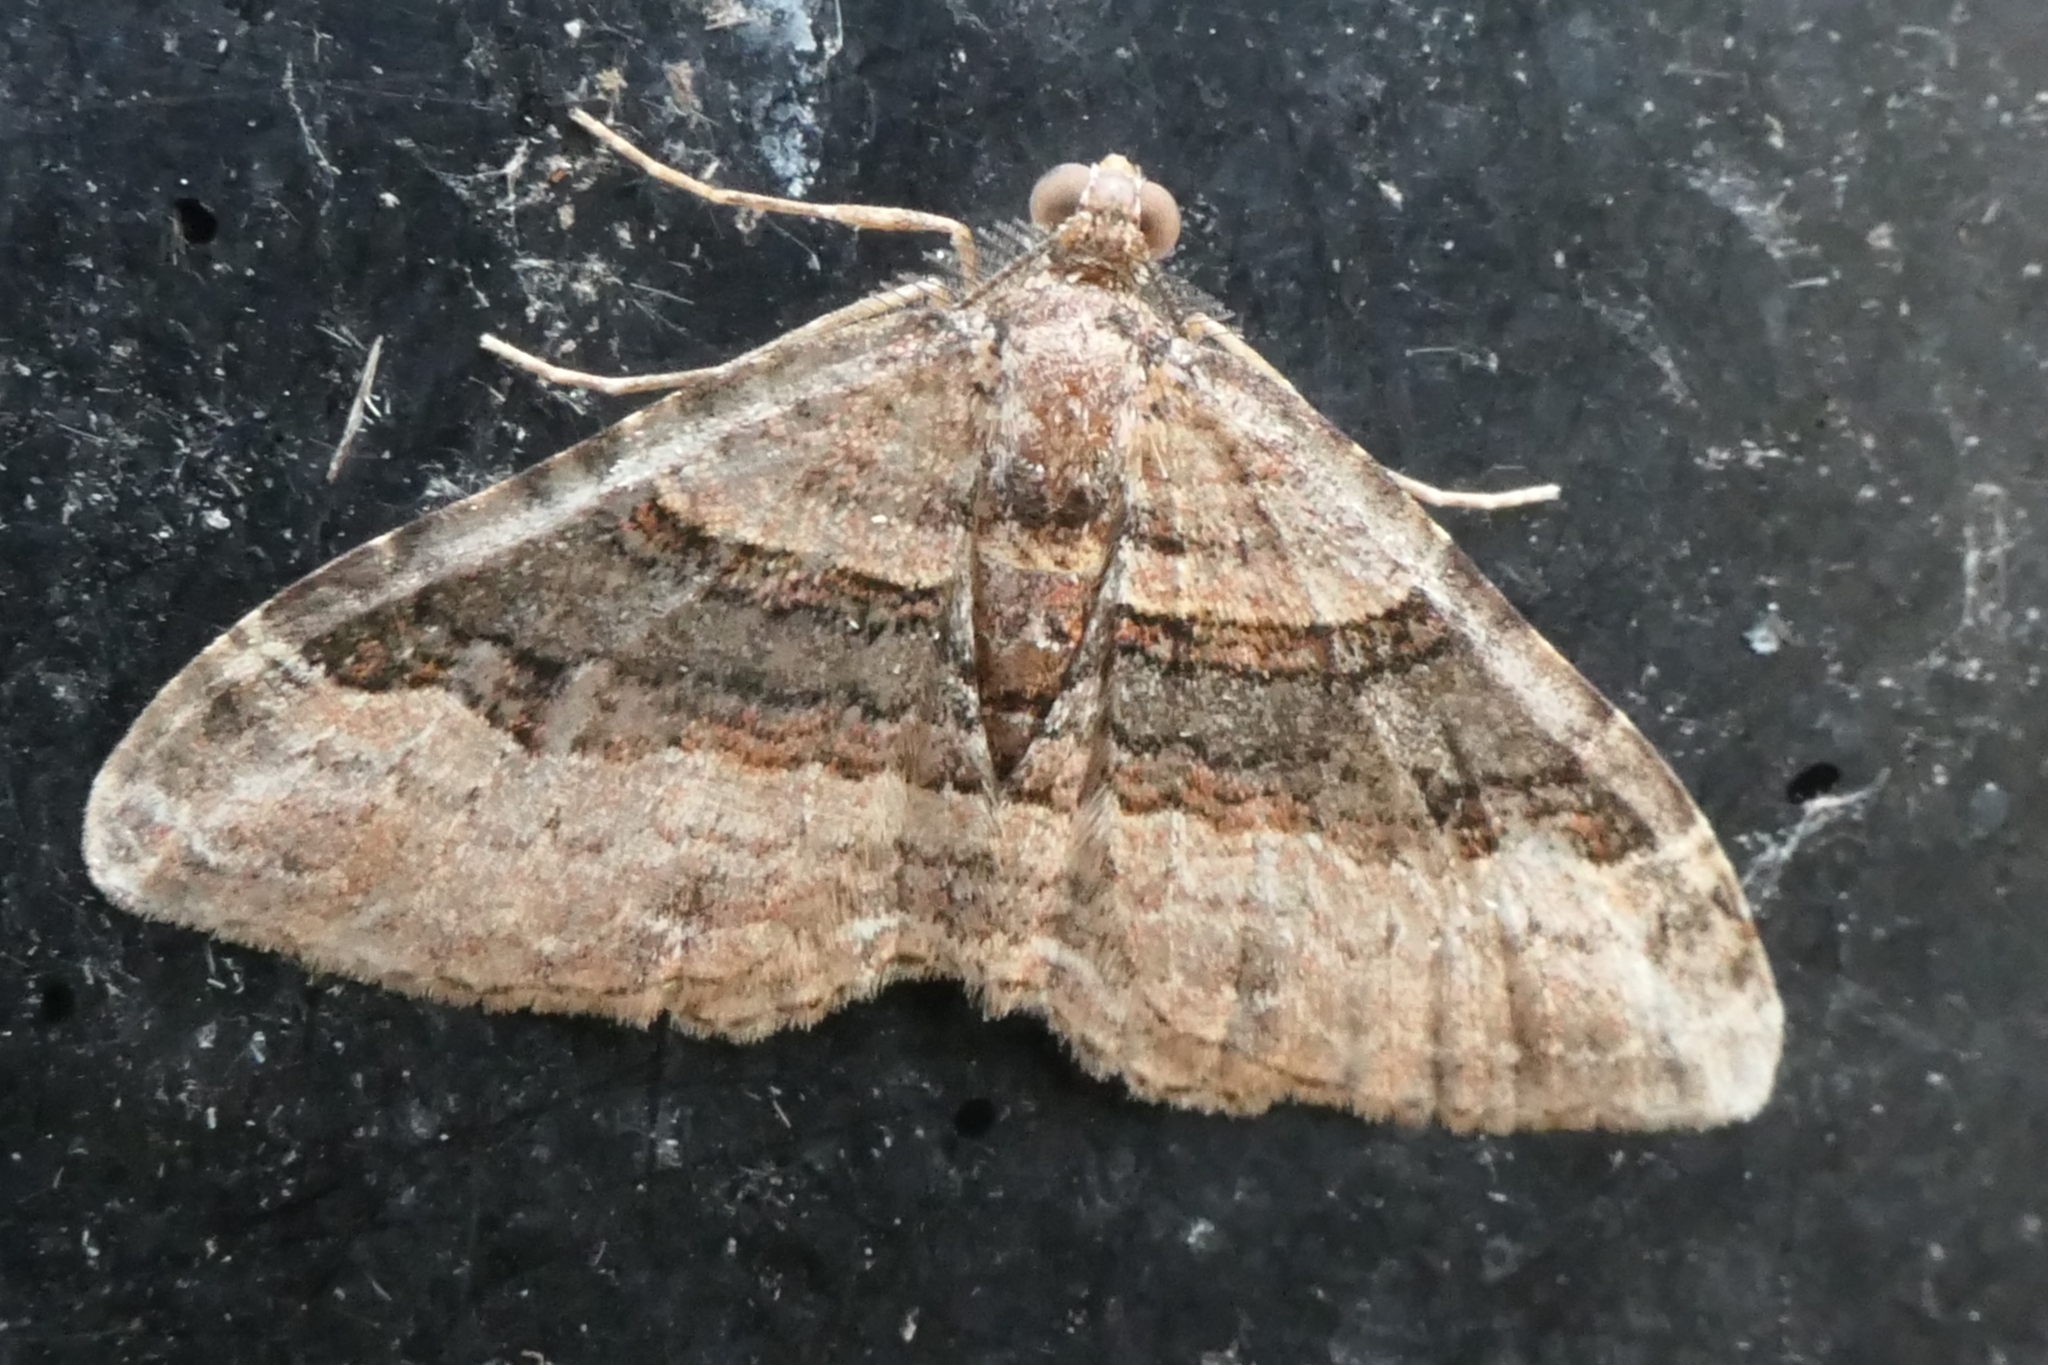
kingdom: Animalia
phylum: Arthropoda
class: Insecta
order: Lepidoptera
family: Geometridae
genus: Epyaxa
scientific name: Epyaxa lucidata
